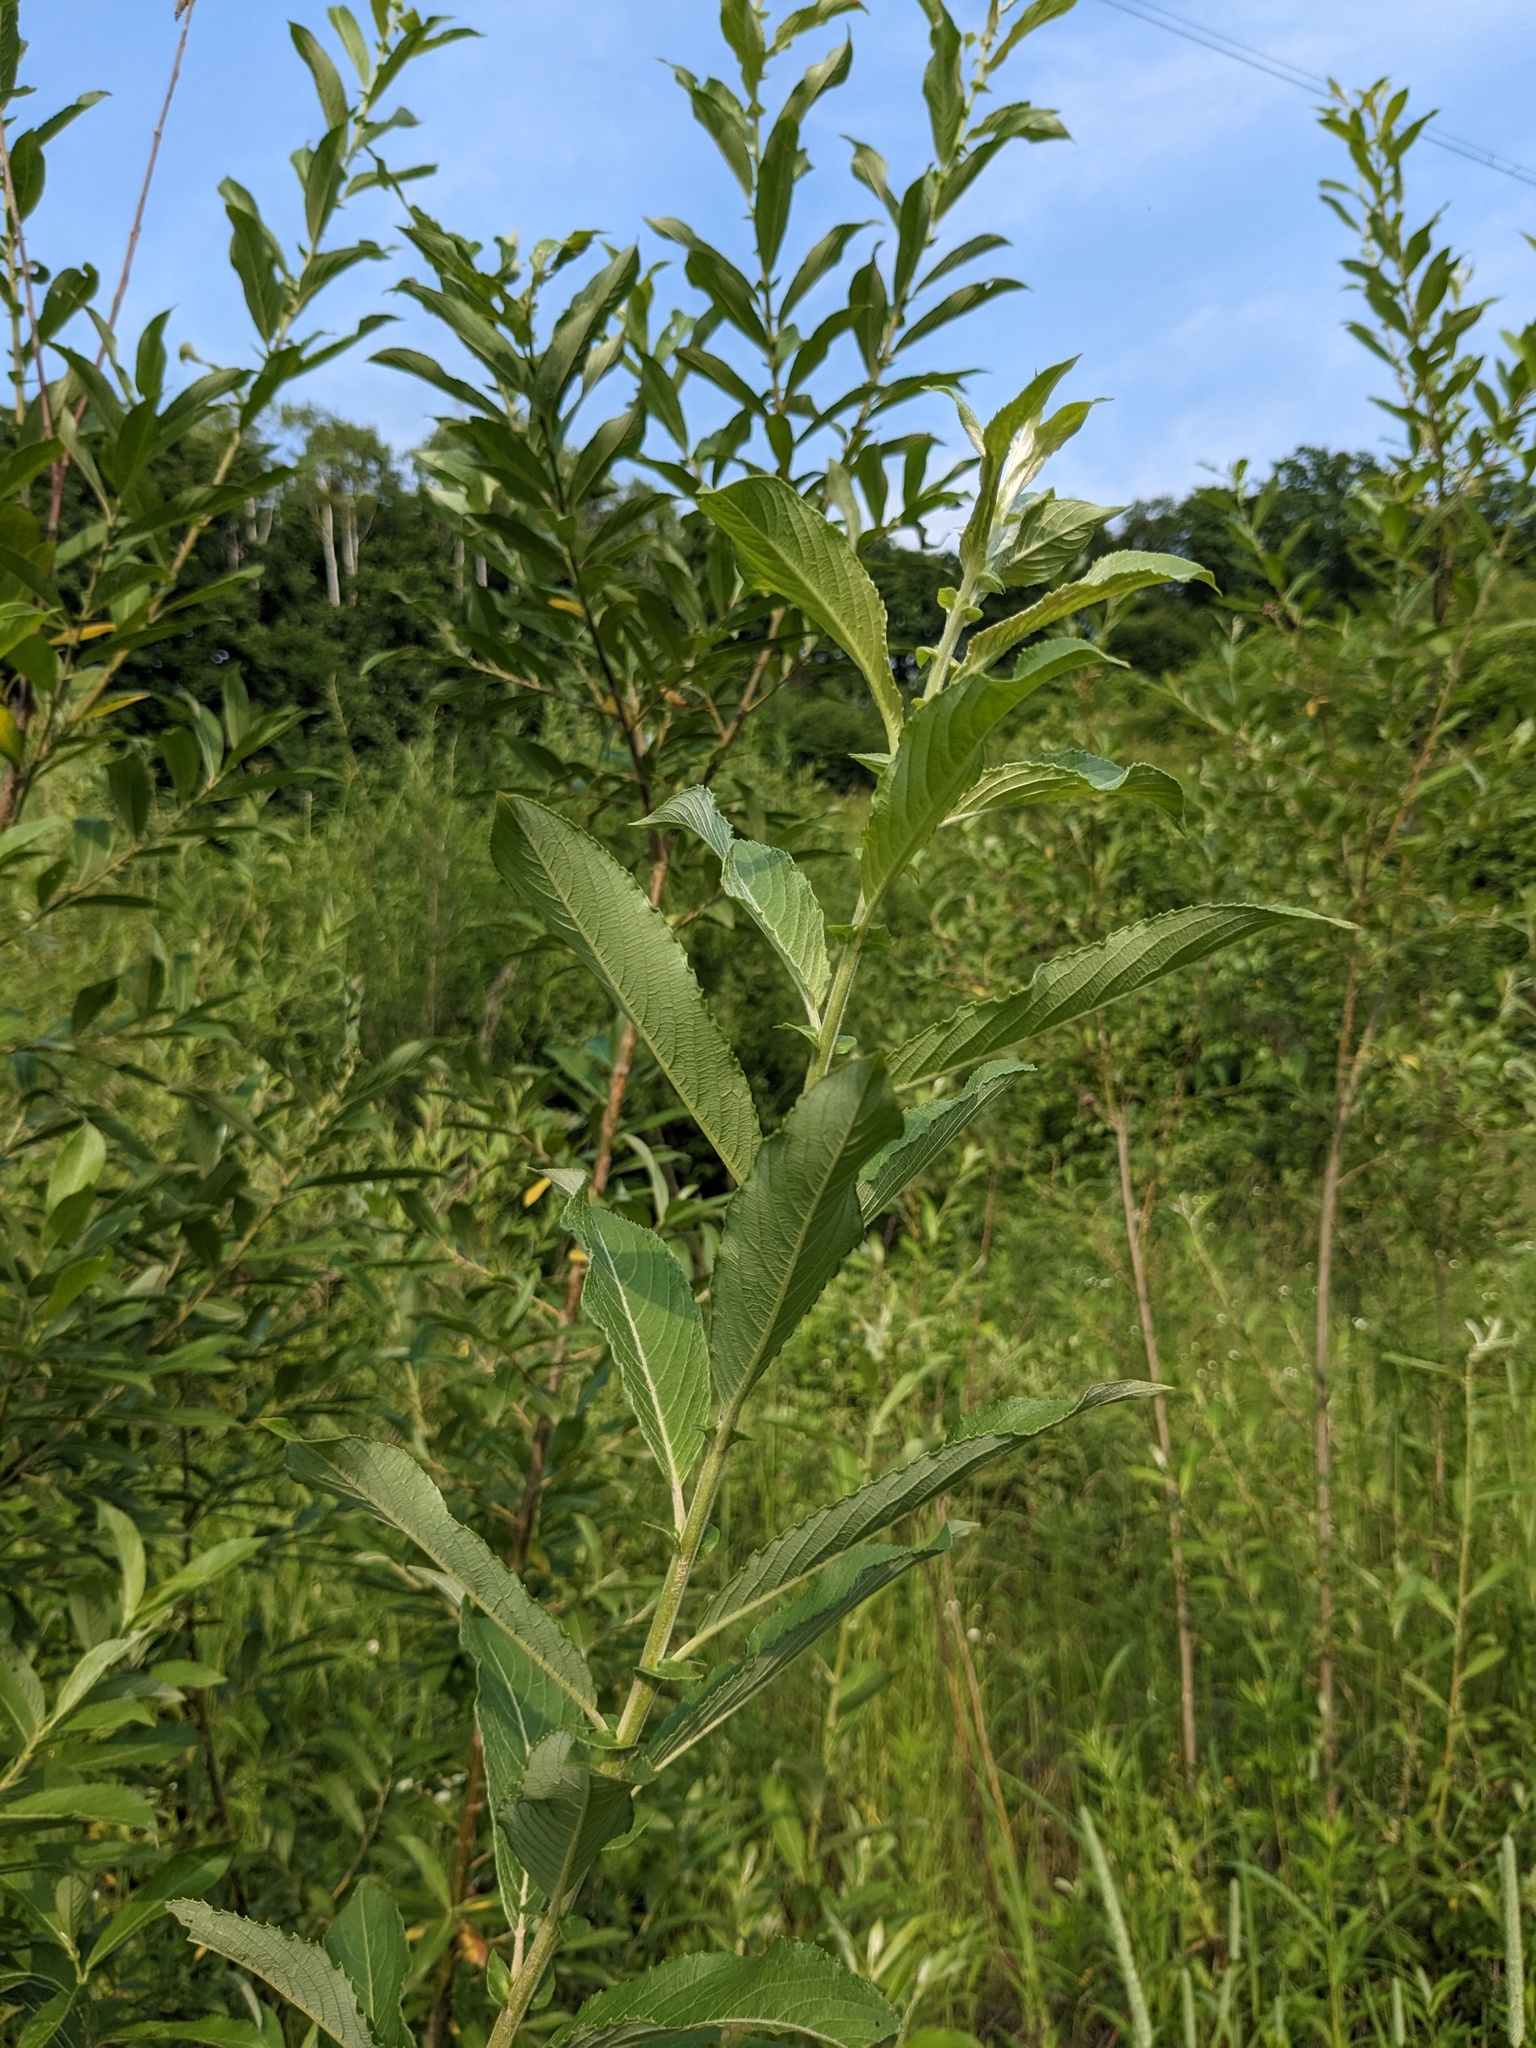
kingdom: Plantae
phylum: Tracheophyta
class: Magnoliopsida
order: Malpighiales
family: Salicaceae
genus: Salix
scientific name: Salix gracilistyla
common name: Rose-gold pussy willow
